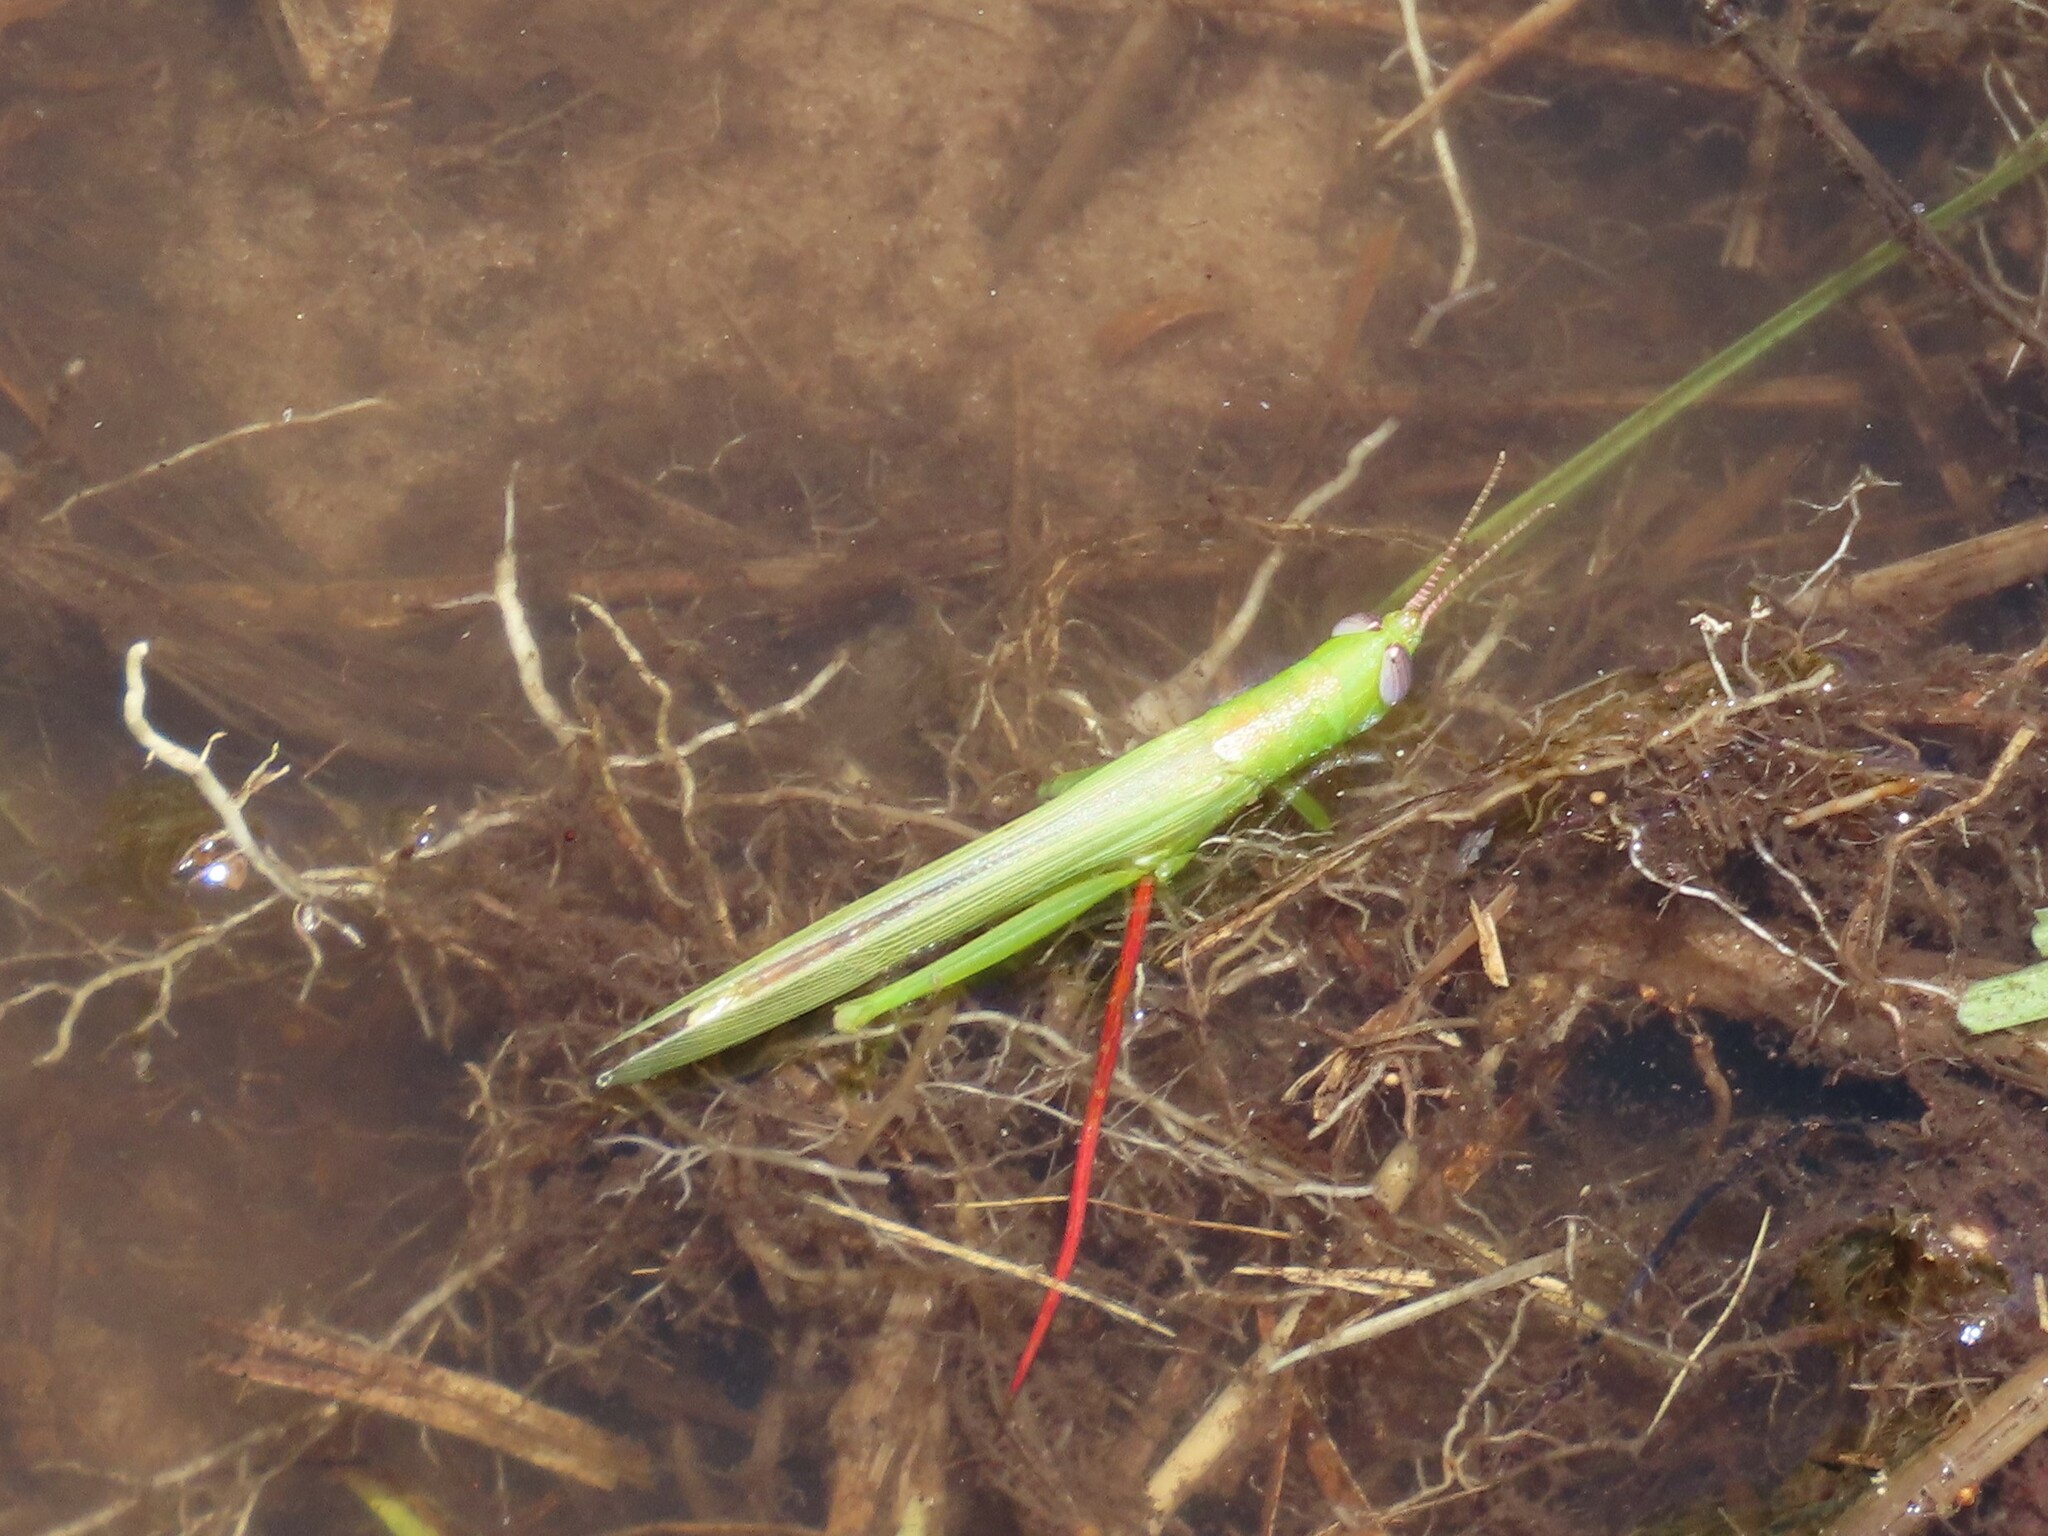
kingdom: Animalia
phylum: Arthropoda
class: Insecta
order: Orthoptera
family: Acrididae
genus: Stenacris
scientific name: Stenacris vitreipennis
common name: Glassy-winged toothpick grasshopper
